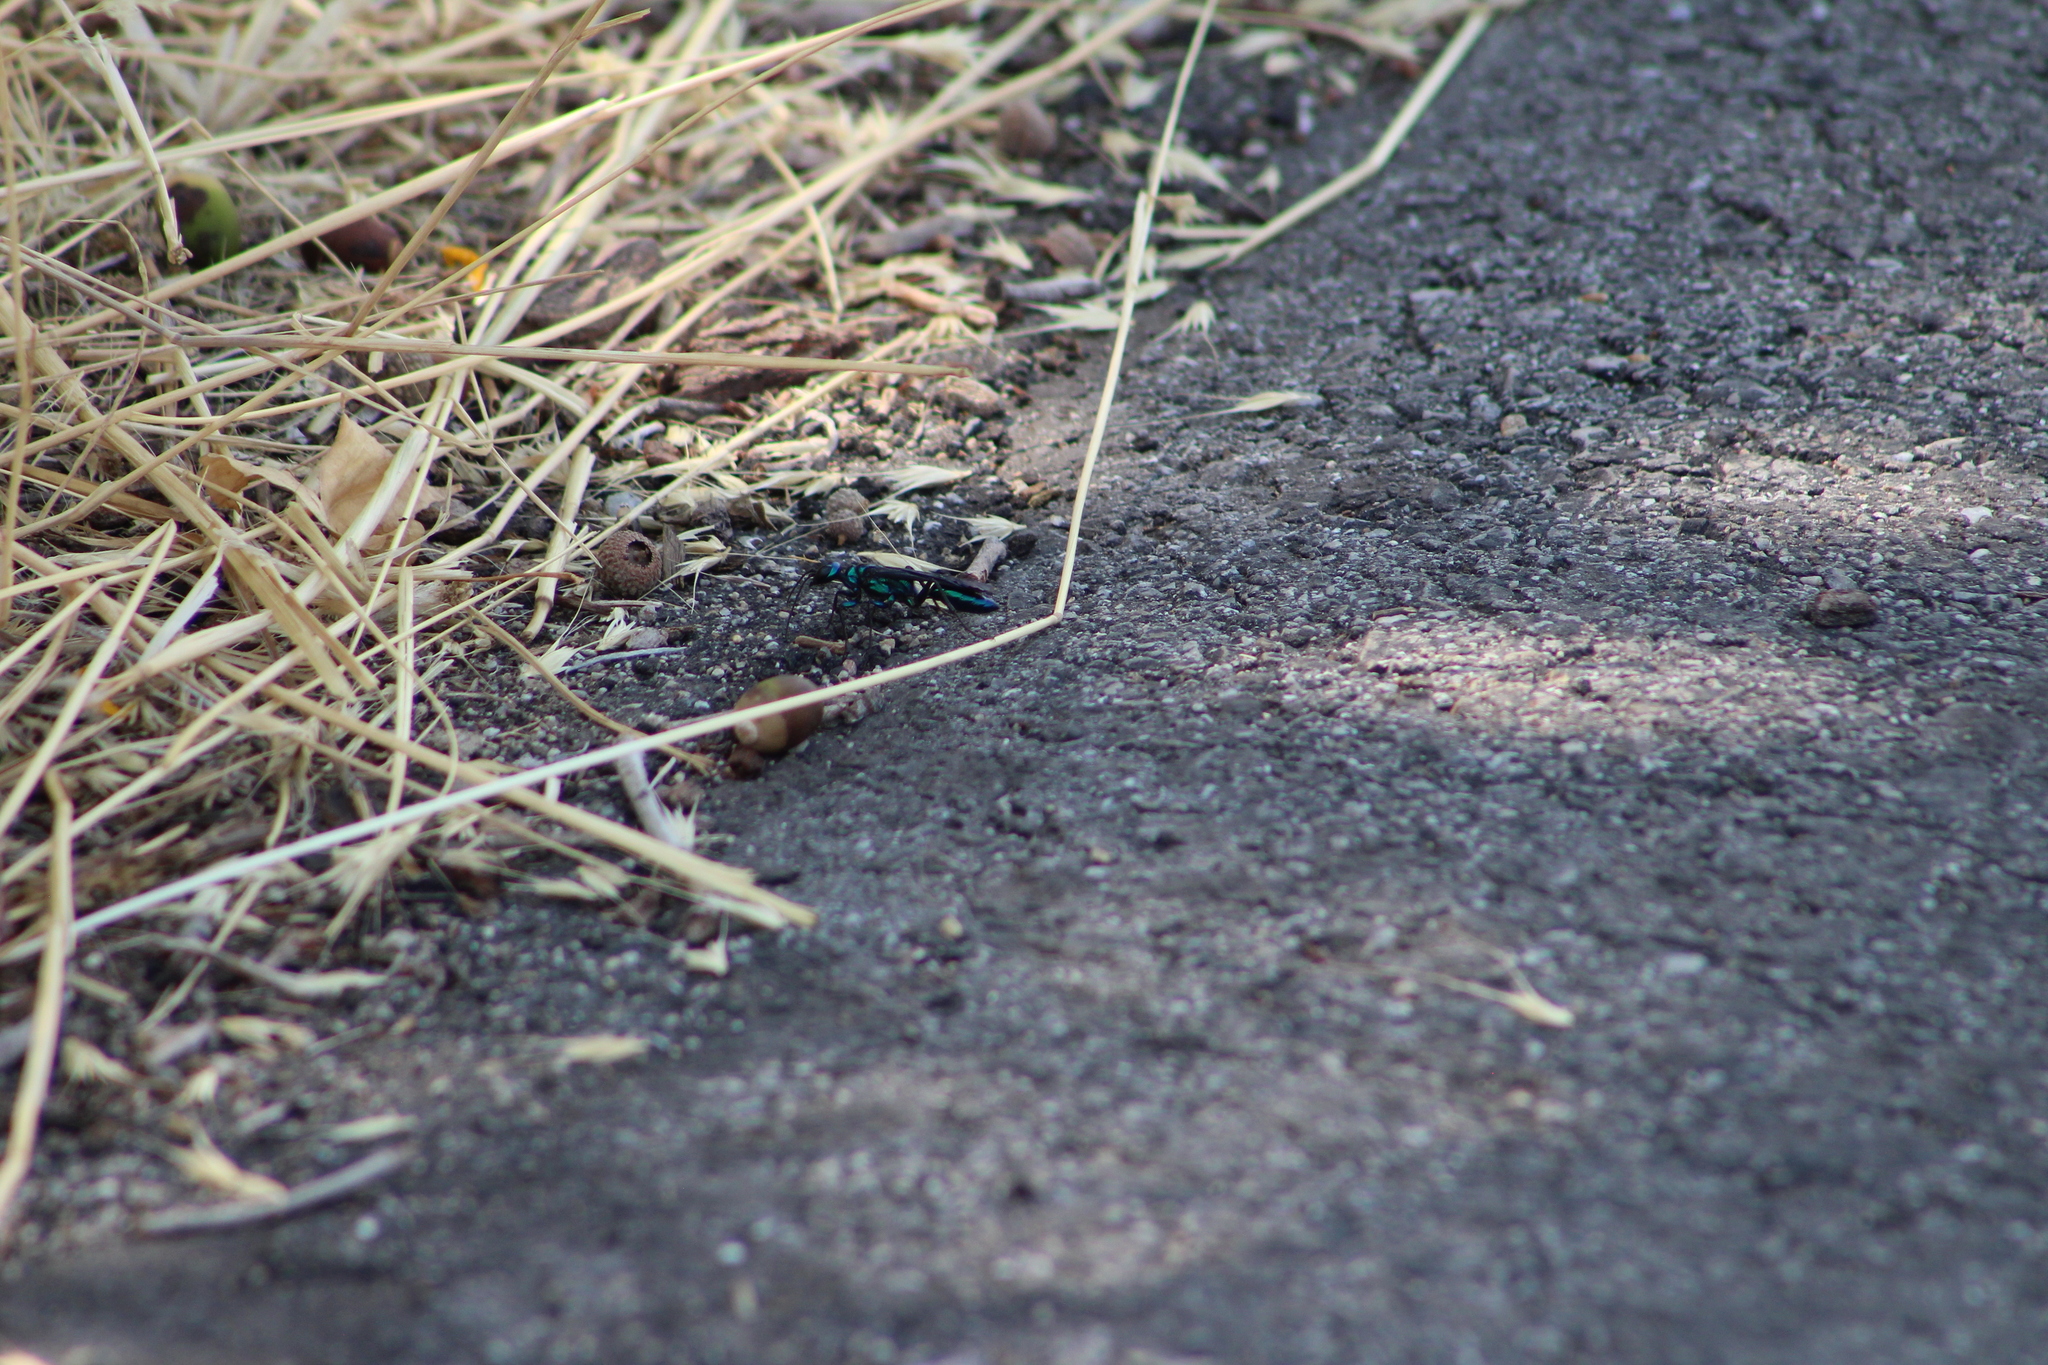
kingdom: Animalia
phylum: Arthropoda
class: Insecta
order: Hymenoptera
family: Sphecidae
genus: Chlorion
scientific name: Chlorion aerarium
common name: Steel-blue cricket hunter
